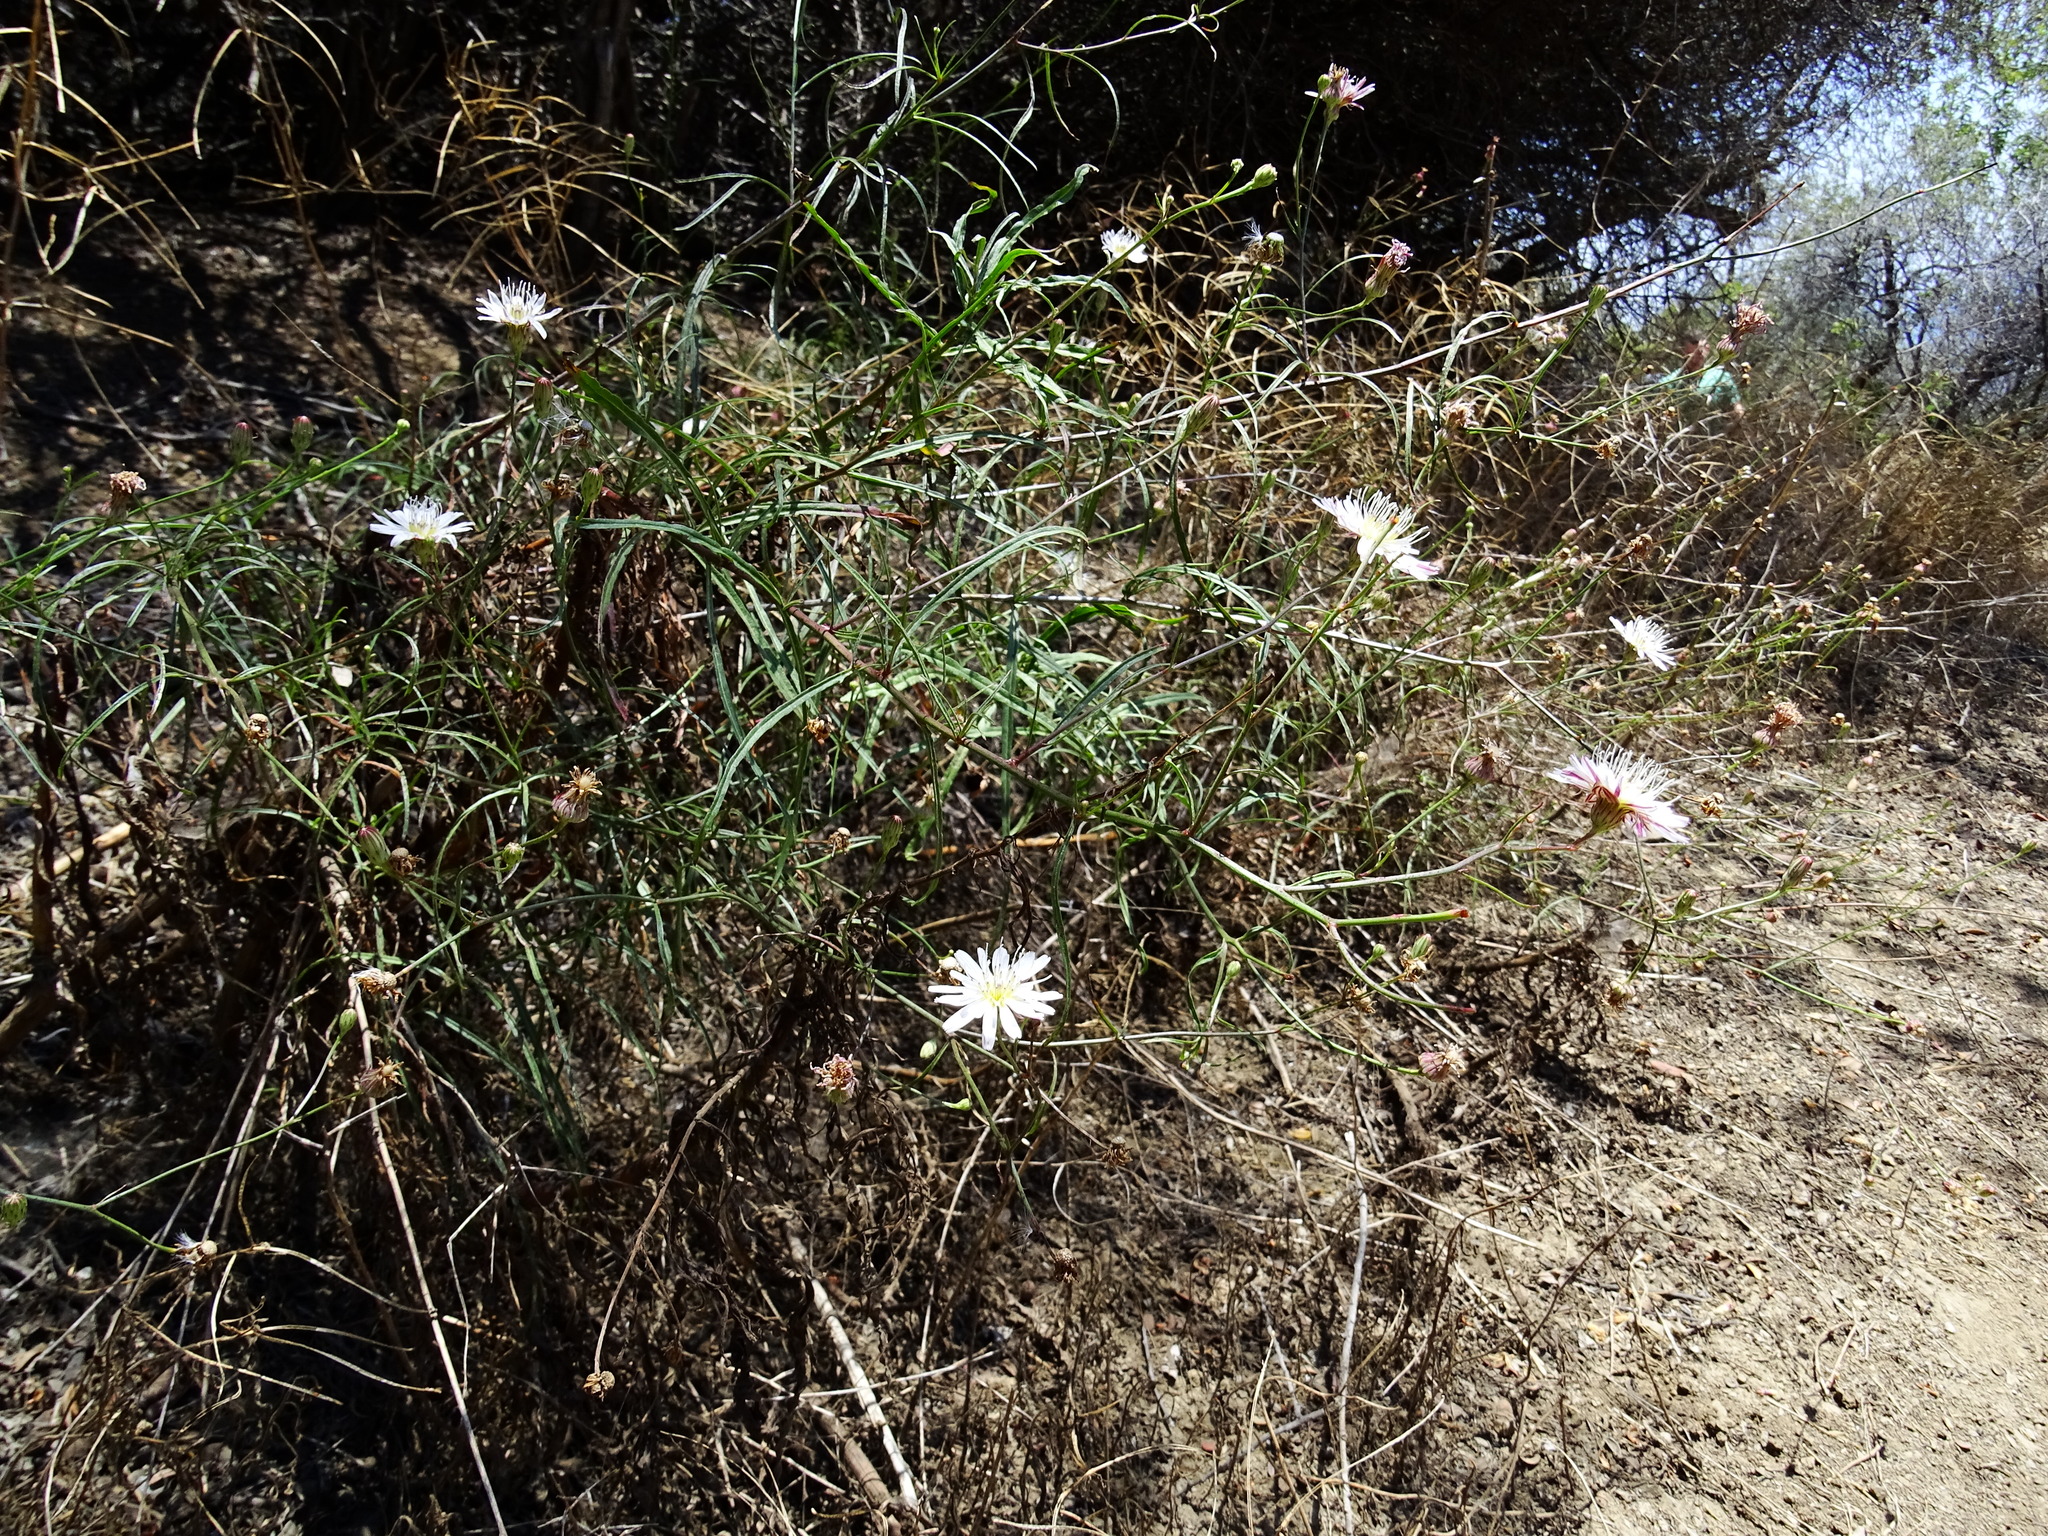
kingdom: Plantae
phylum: Tracheophyta
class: Magnoliopsida
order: Asterales
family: Asteraceae
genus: Malacothrix
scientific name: Malacothrix saxatilis
